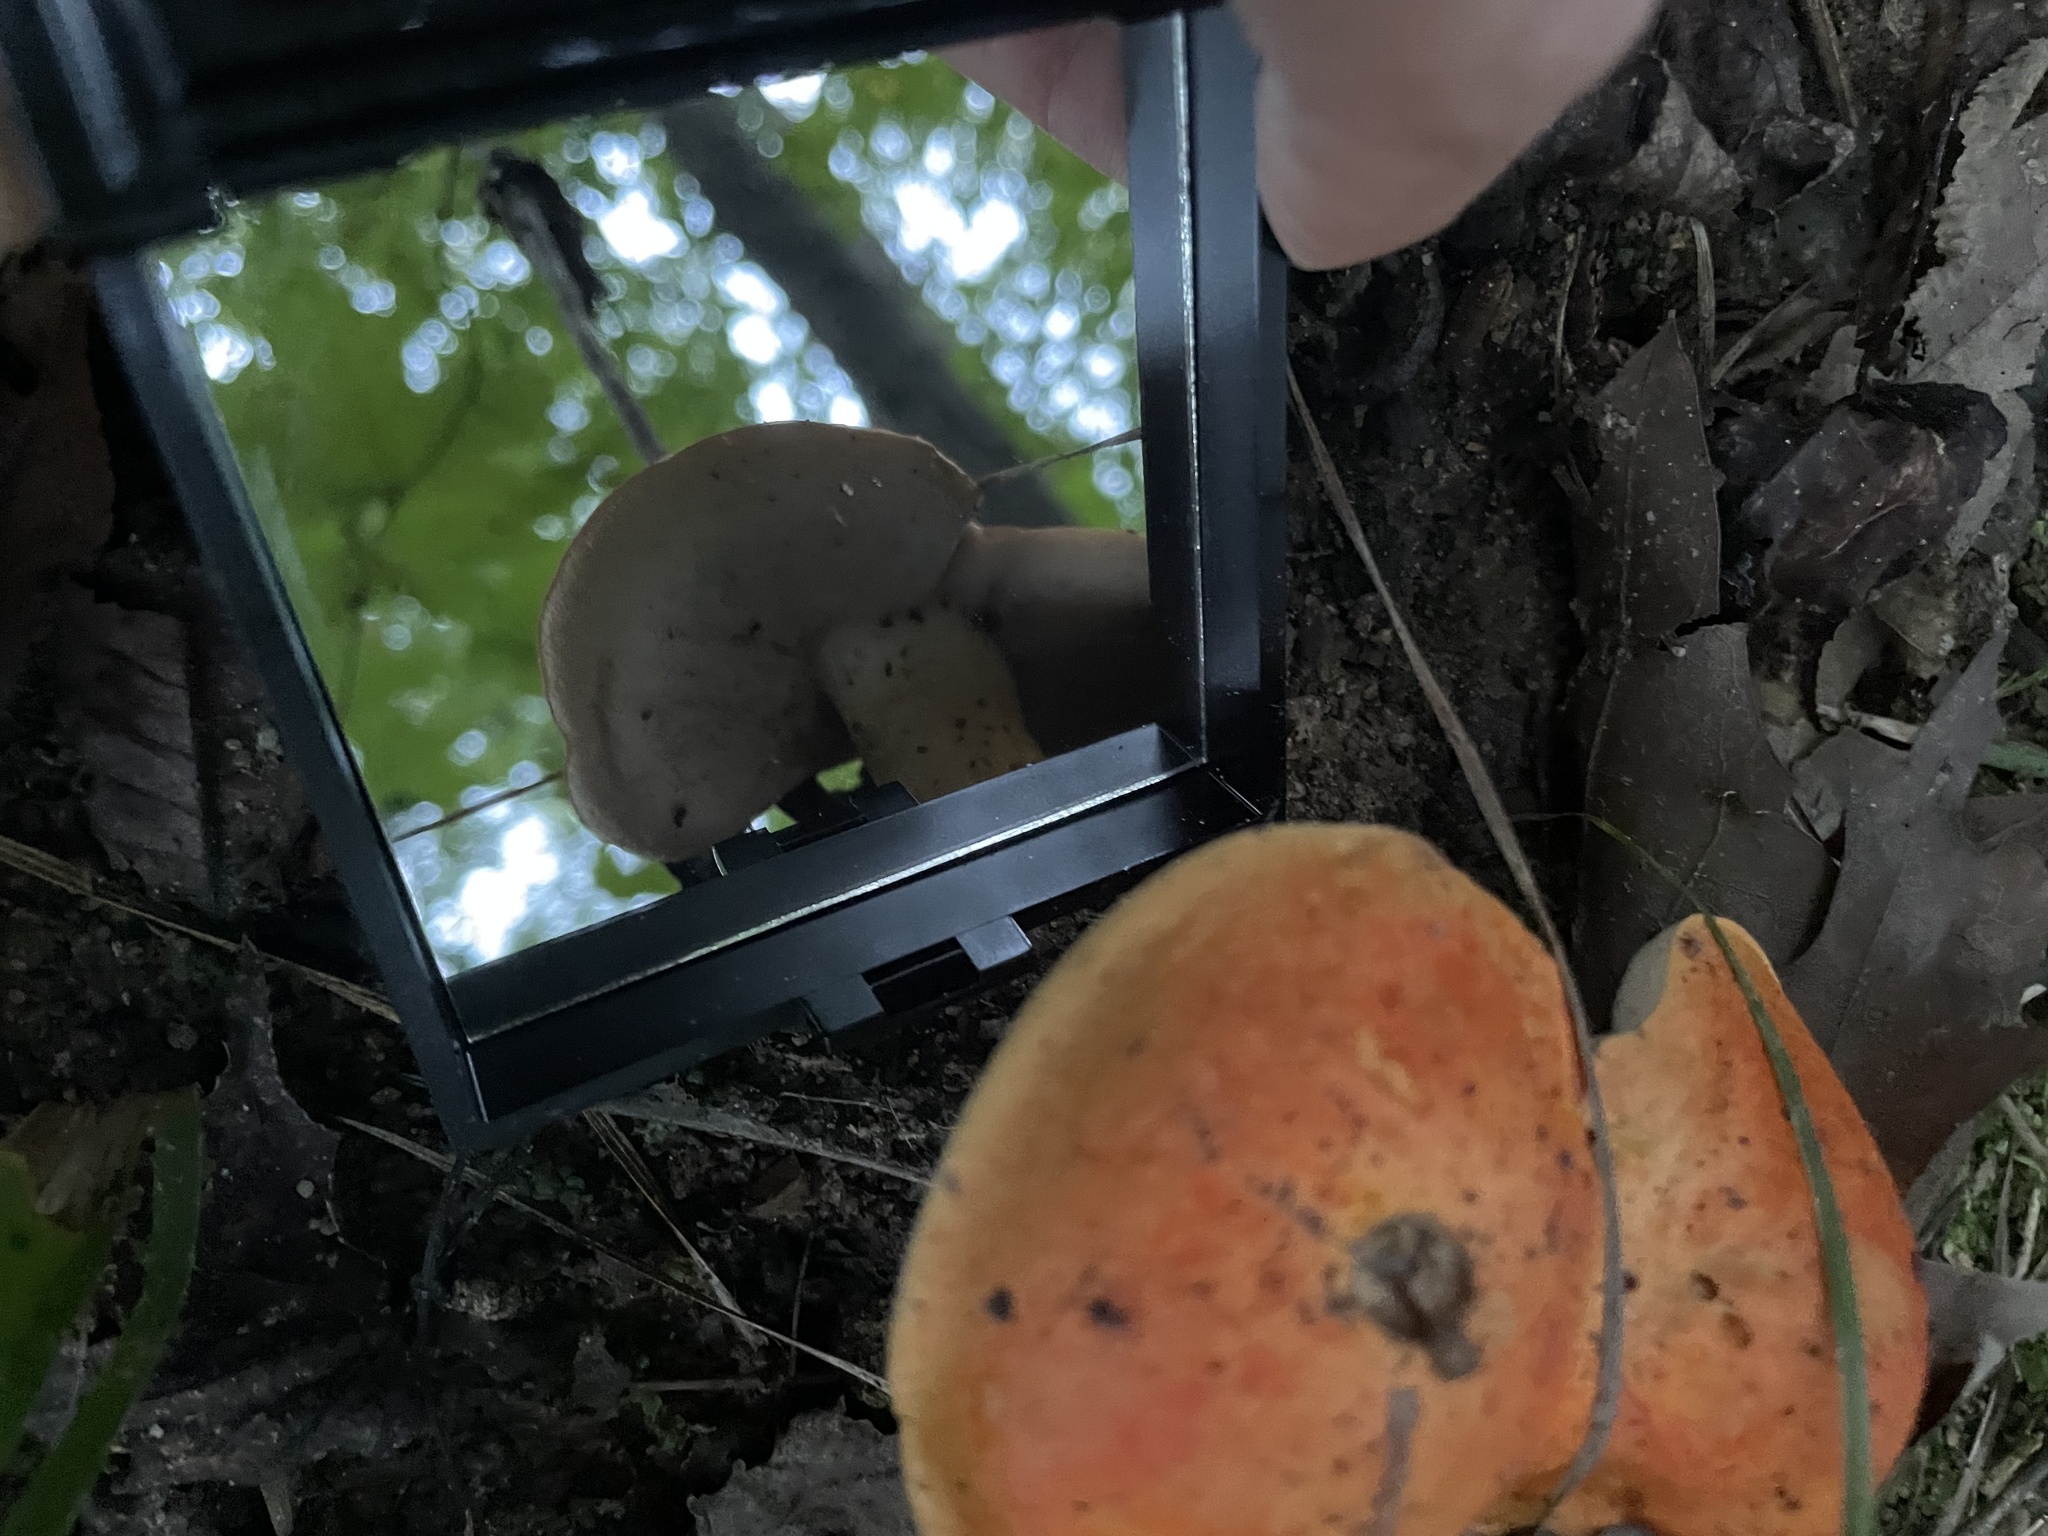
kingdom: Fungi
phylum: Basidiomycota
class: Agaricomycetes
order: Boletales
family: Boletaceae
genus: Tylopilus
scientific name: Tylopilus balloui
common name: Burnt-orange bolete
